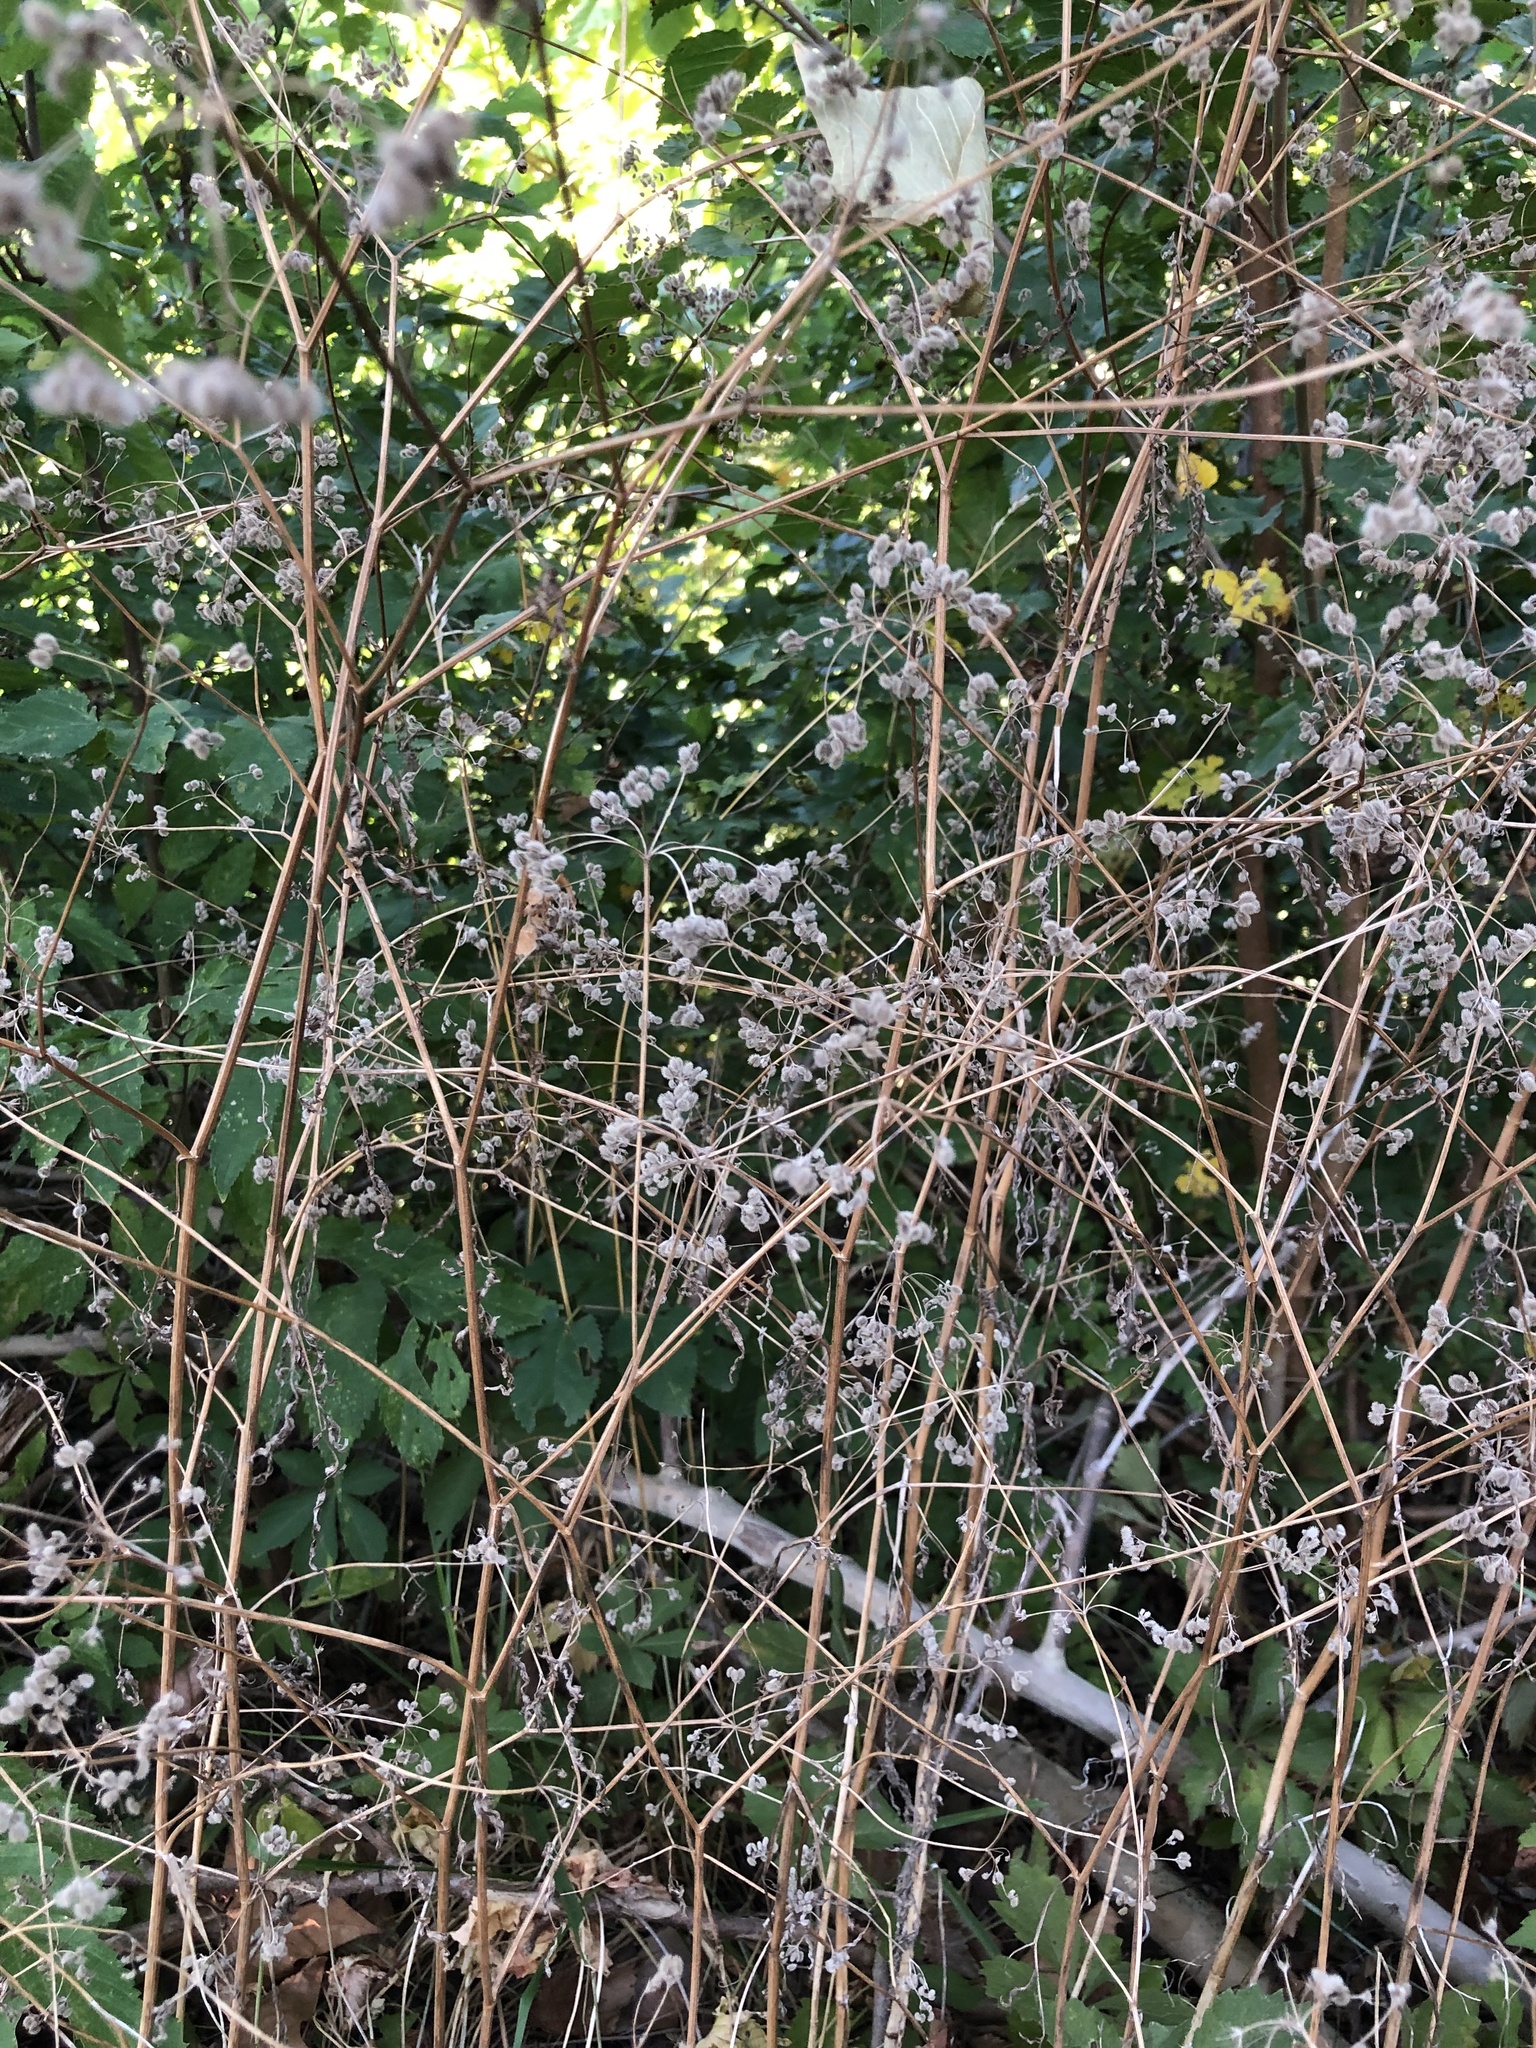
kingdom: Plantae
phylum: Tracheophyta
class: Magnoliopsida
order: Apiales
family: Apiaceae
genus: Torilis
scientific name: Torilis arvensis
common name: Spreading hedge-parsley
